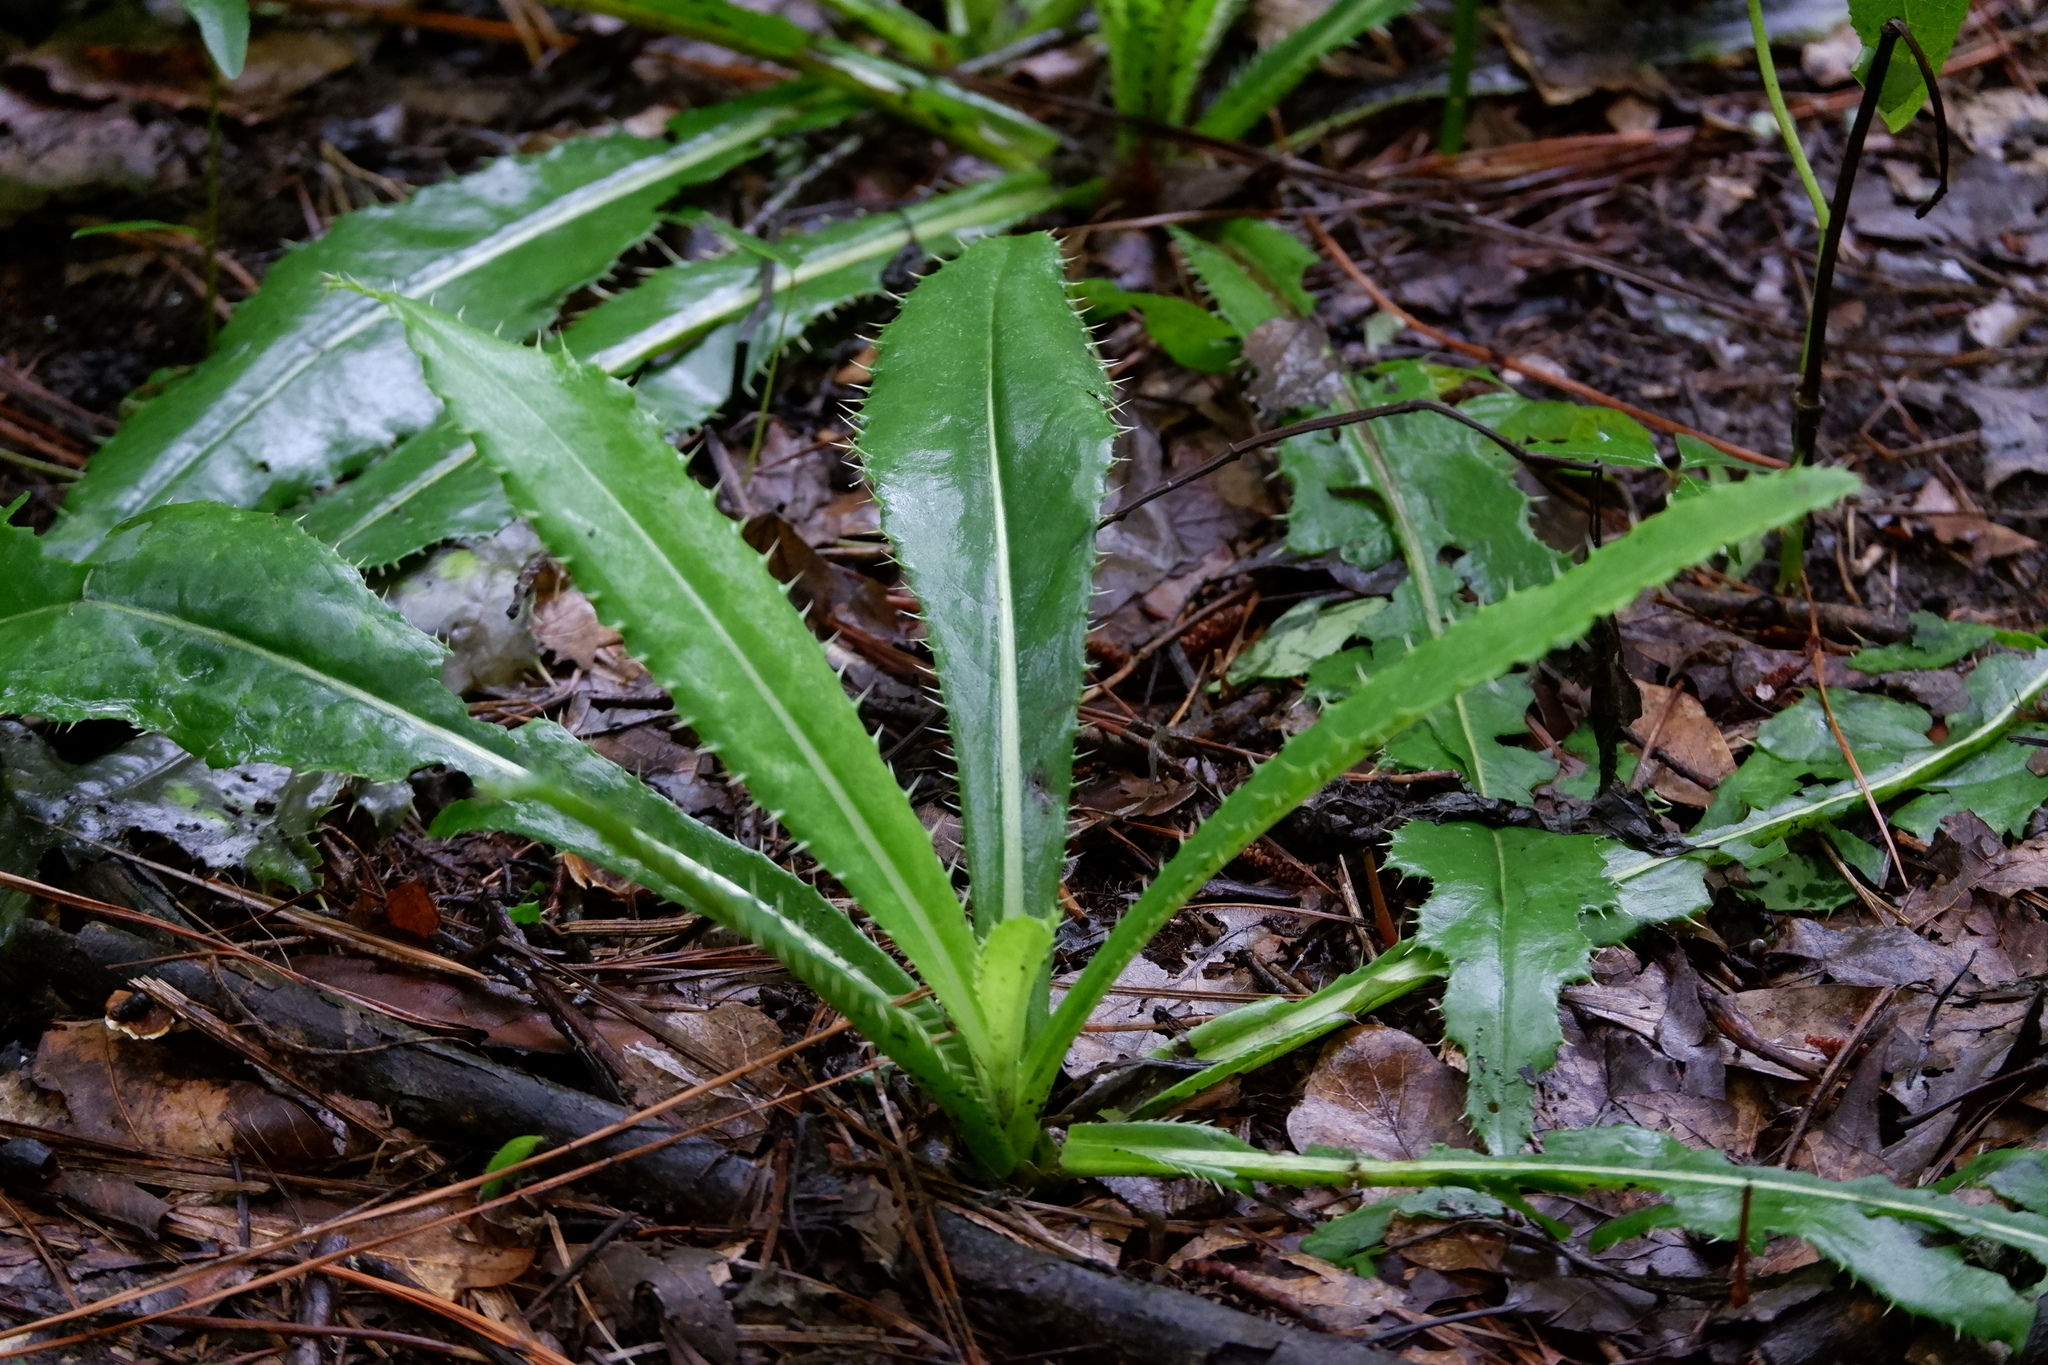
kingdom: Plantae
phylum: Tracheophyta
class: Magnoliopsida
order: Asterales
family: Asteraceae
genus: Cirsium
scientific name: Cirsium horridulum
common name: Bristly thistle
